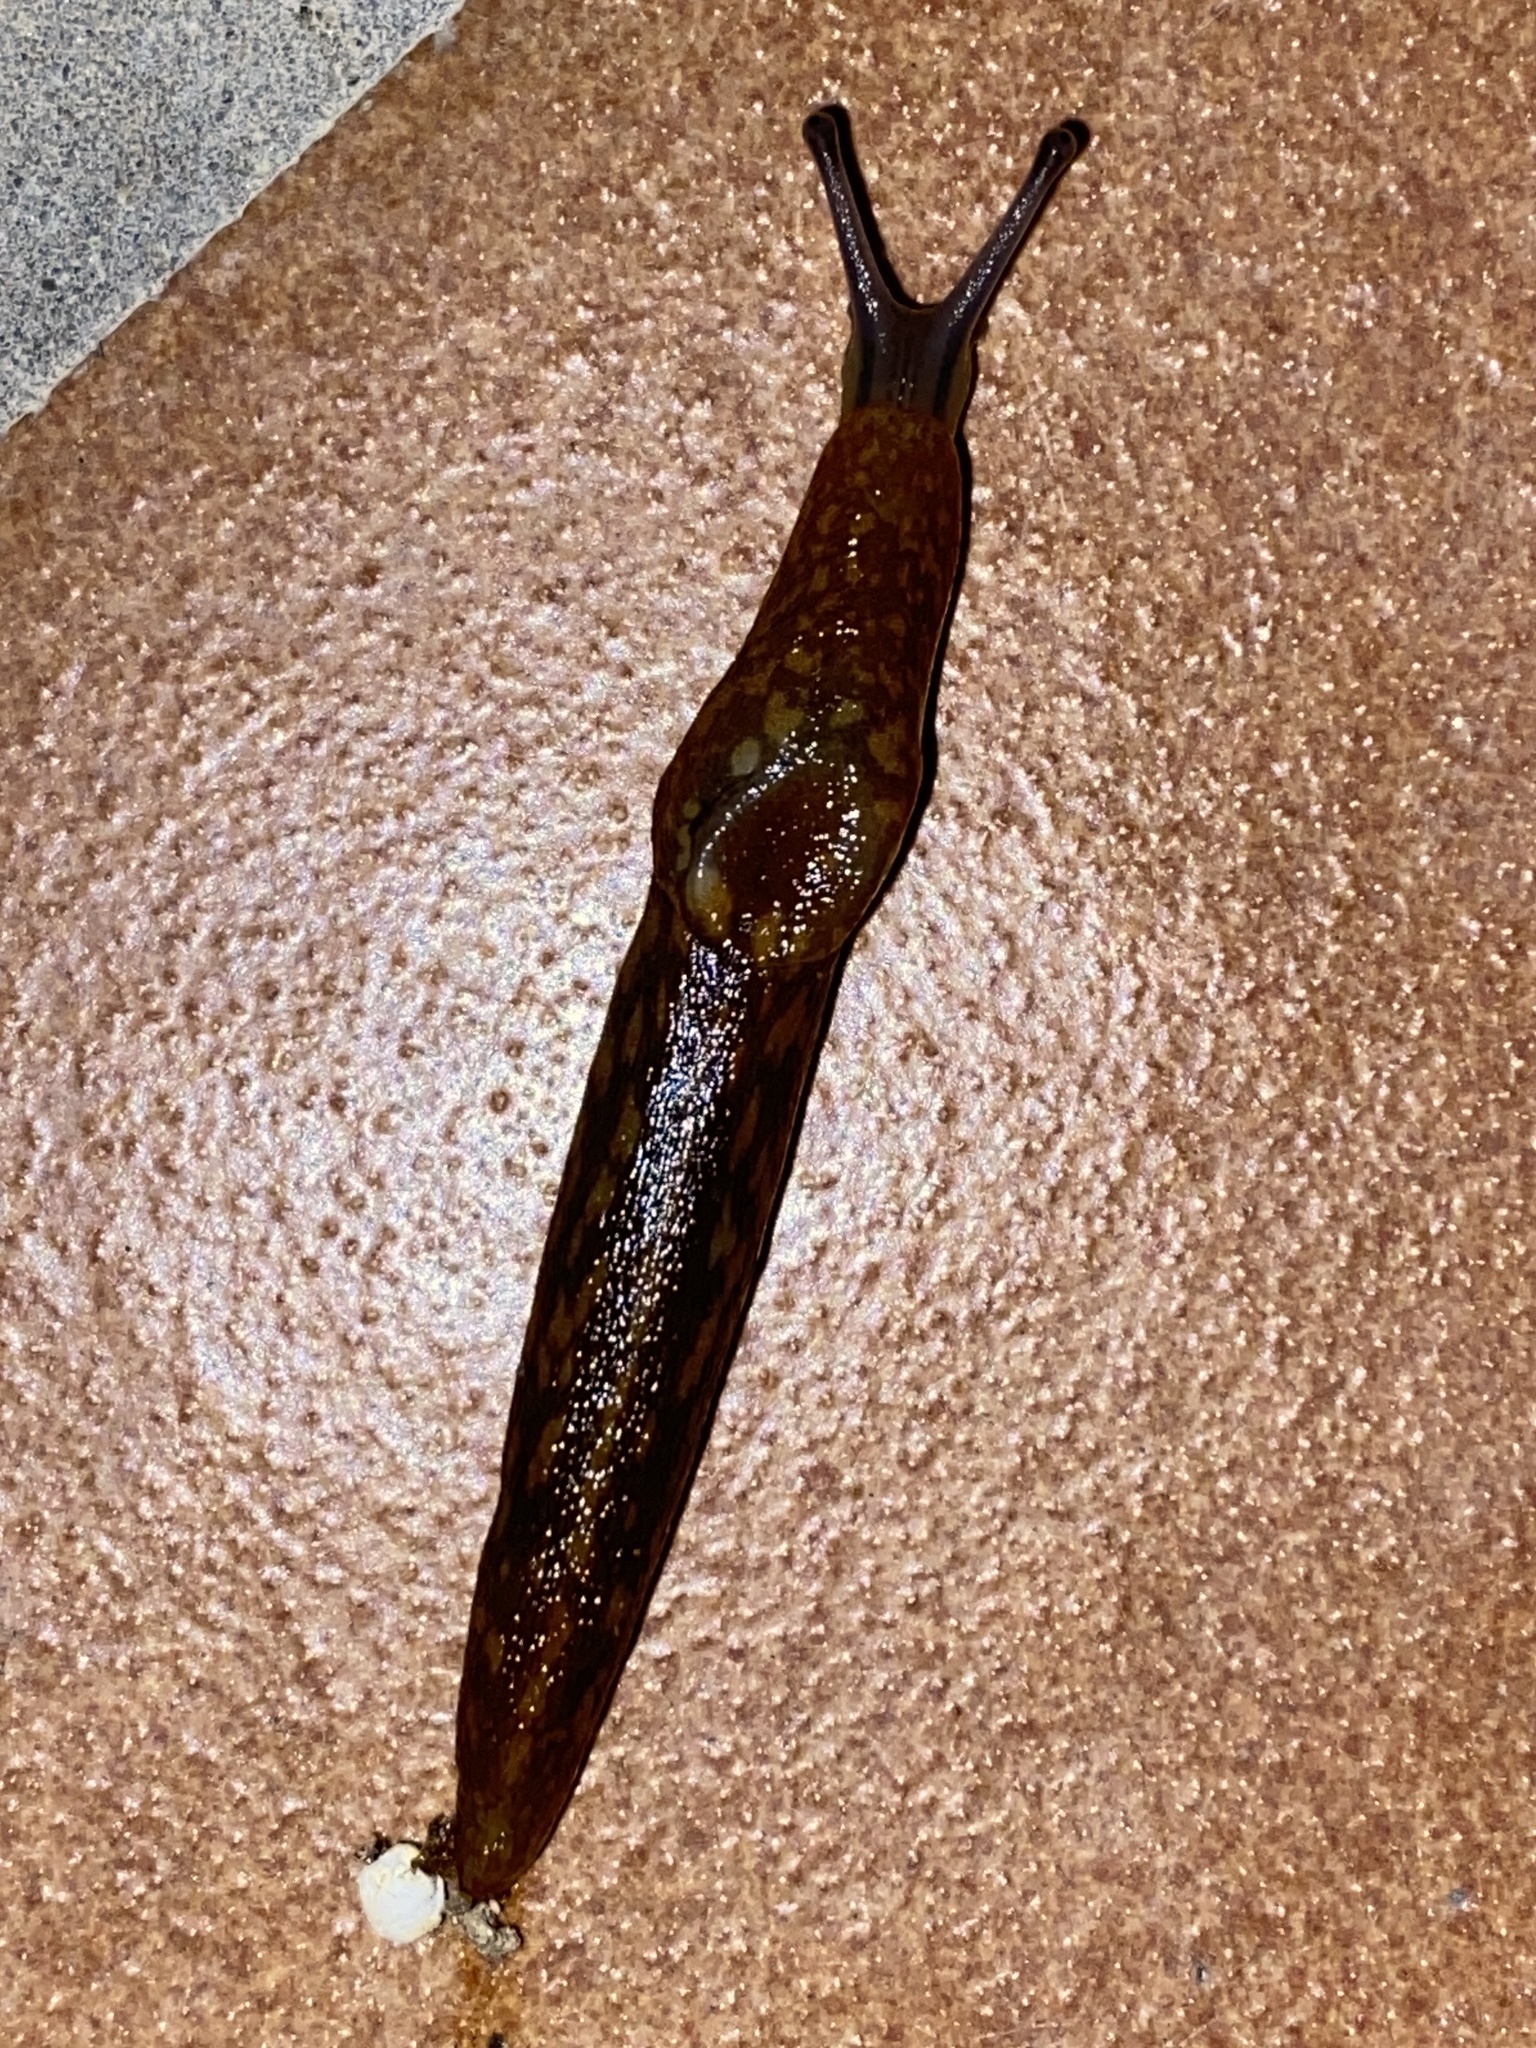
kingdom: Animalia
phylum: Mollusca
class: Gastropoda
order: Stylommatophora
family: Limacidae
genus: Limacus
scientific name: Limacus flavus
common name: Yellow gardenslug
